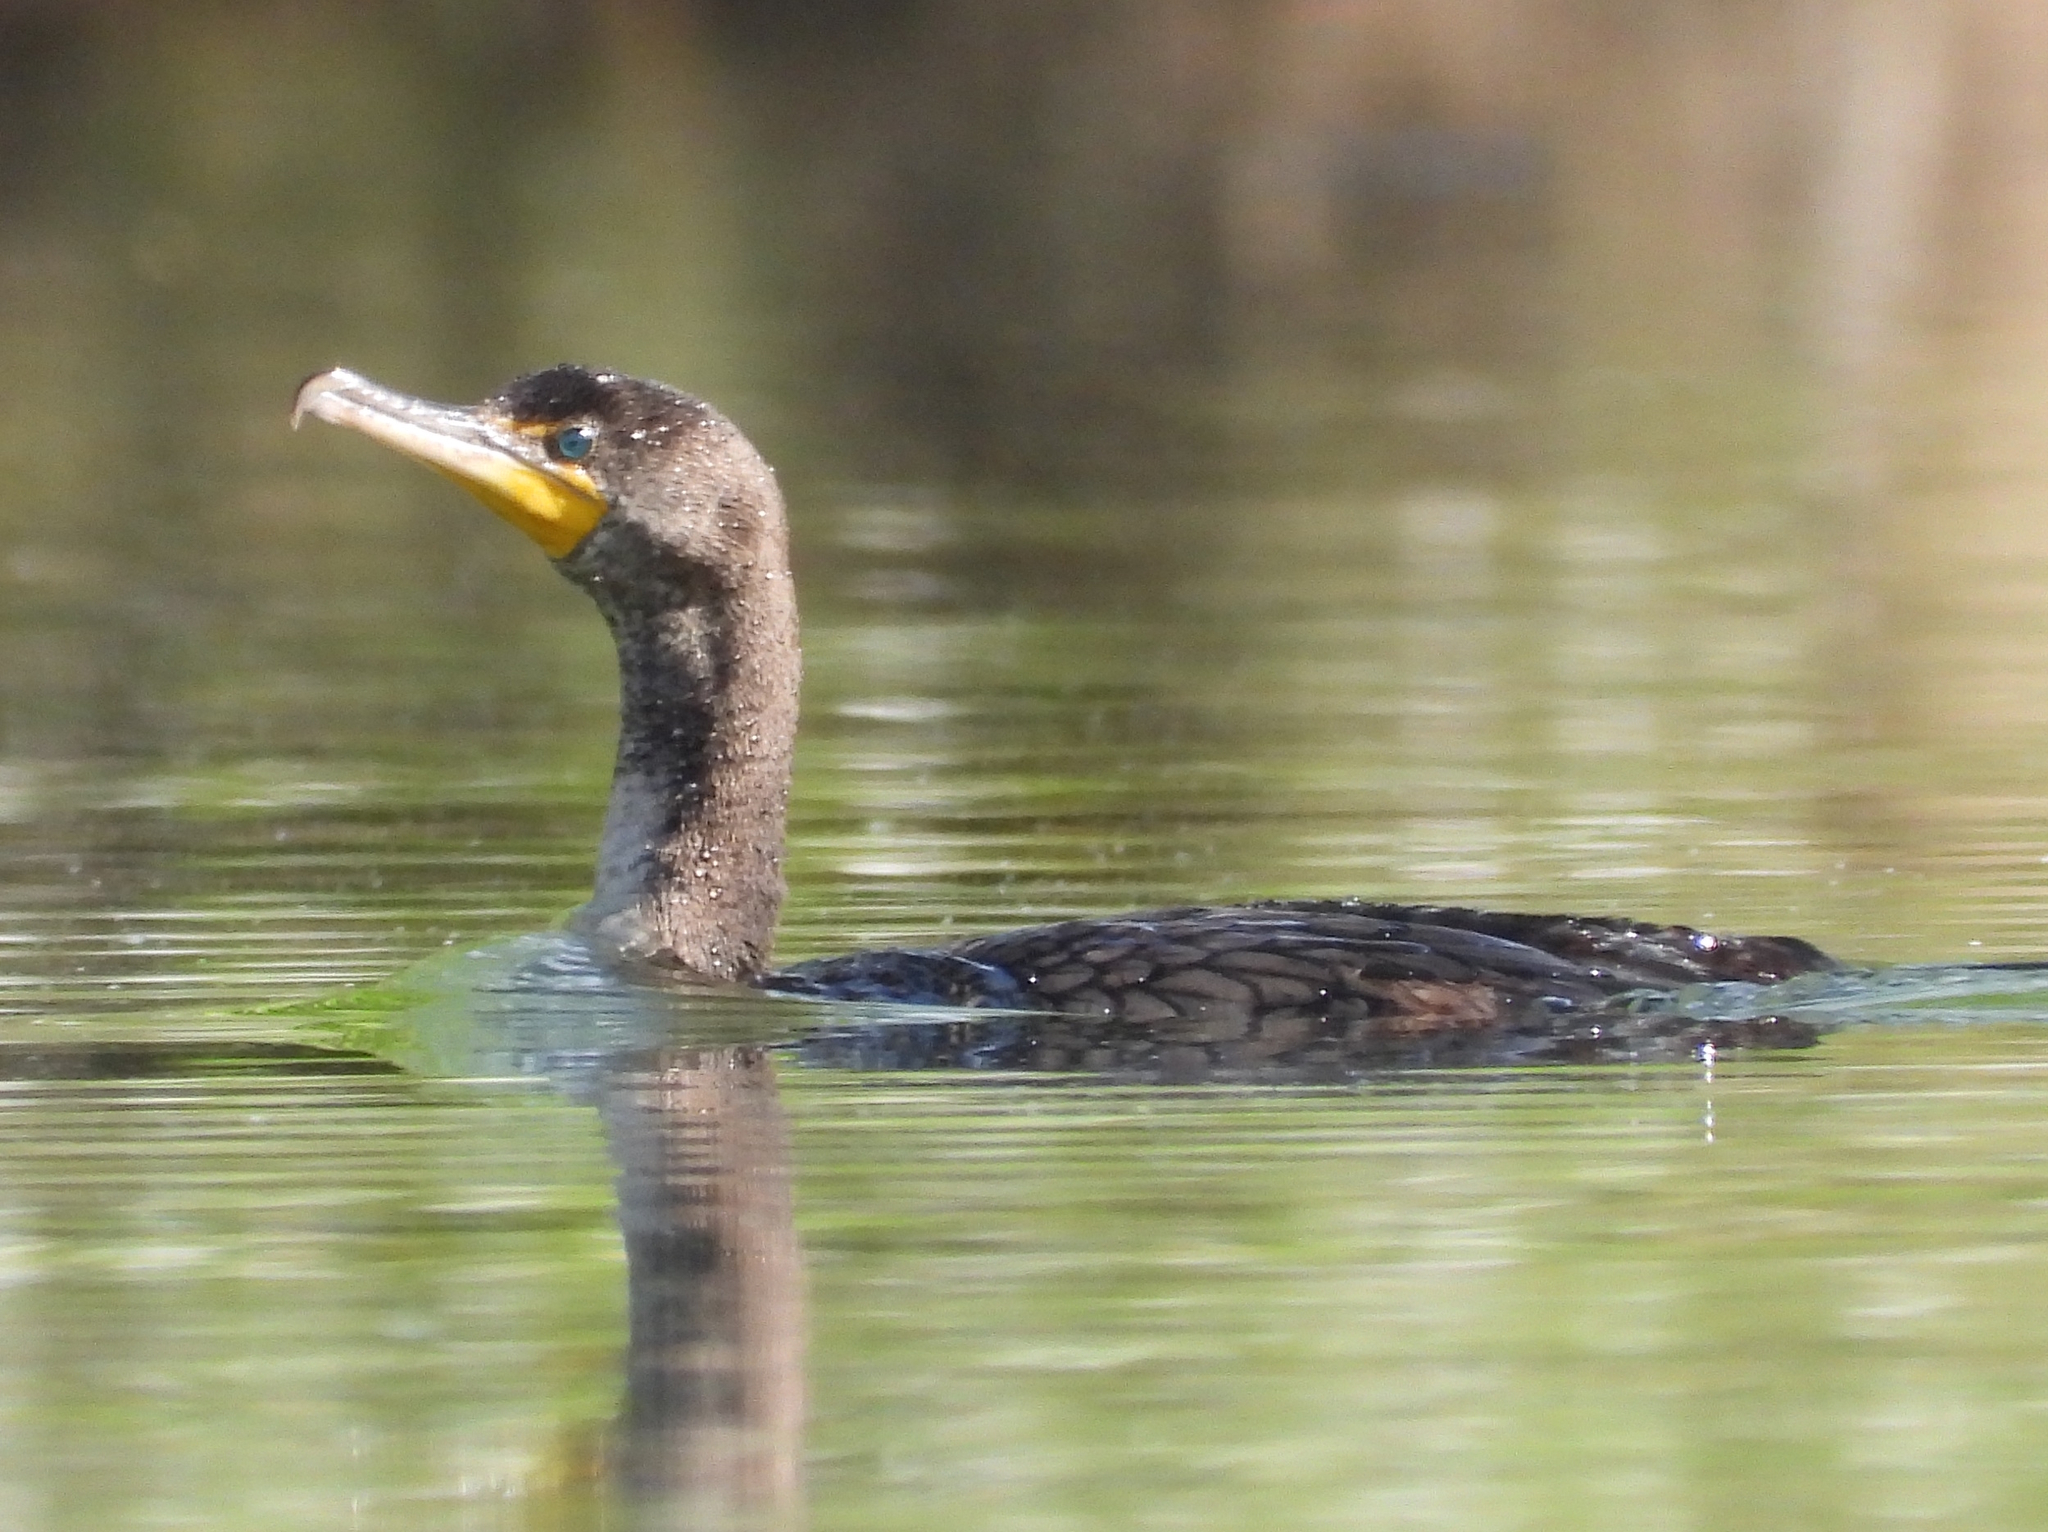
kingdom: Animalia
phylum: Chordata
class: Aves
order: Suliformes
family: Phalacrocoracidae
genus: Phalacrocorax
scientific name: Phalacrocorax auritus
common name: Double-crested cormorant
